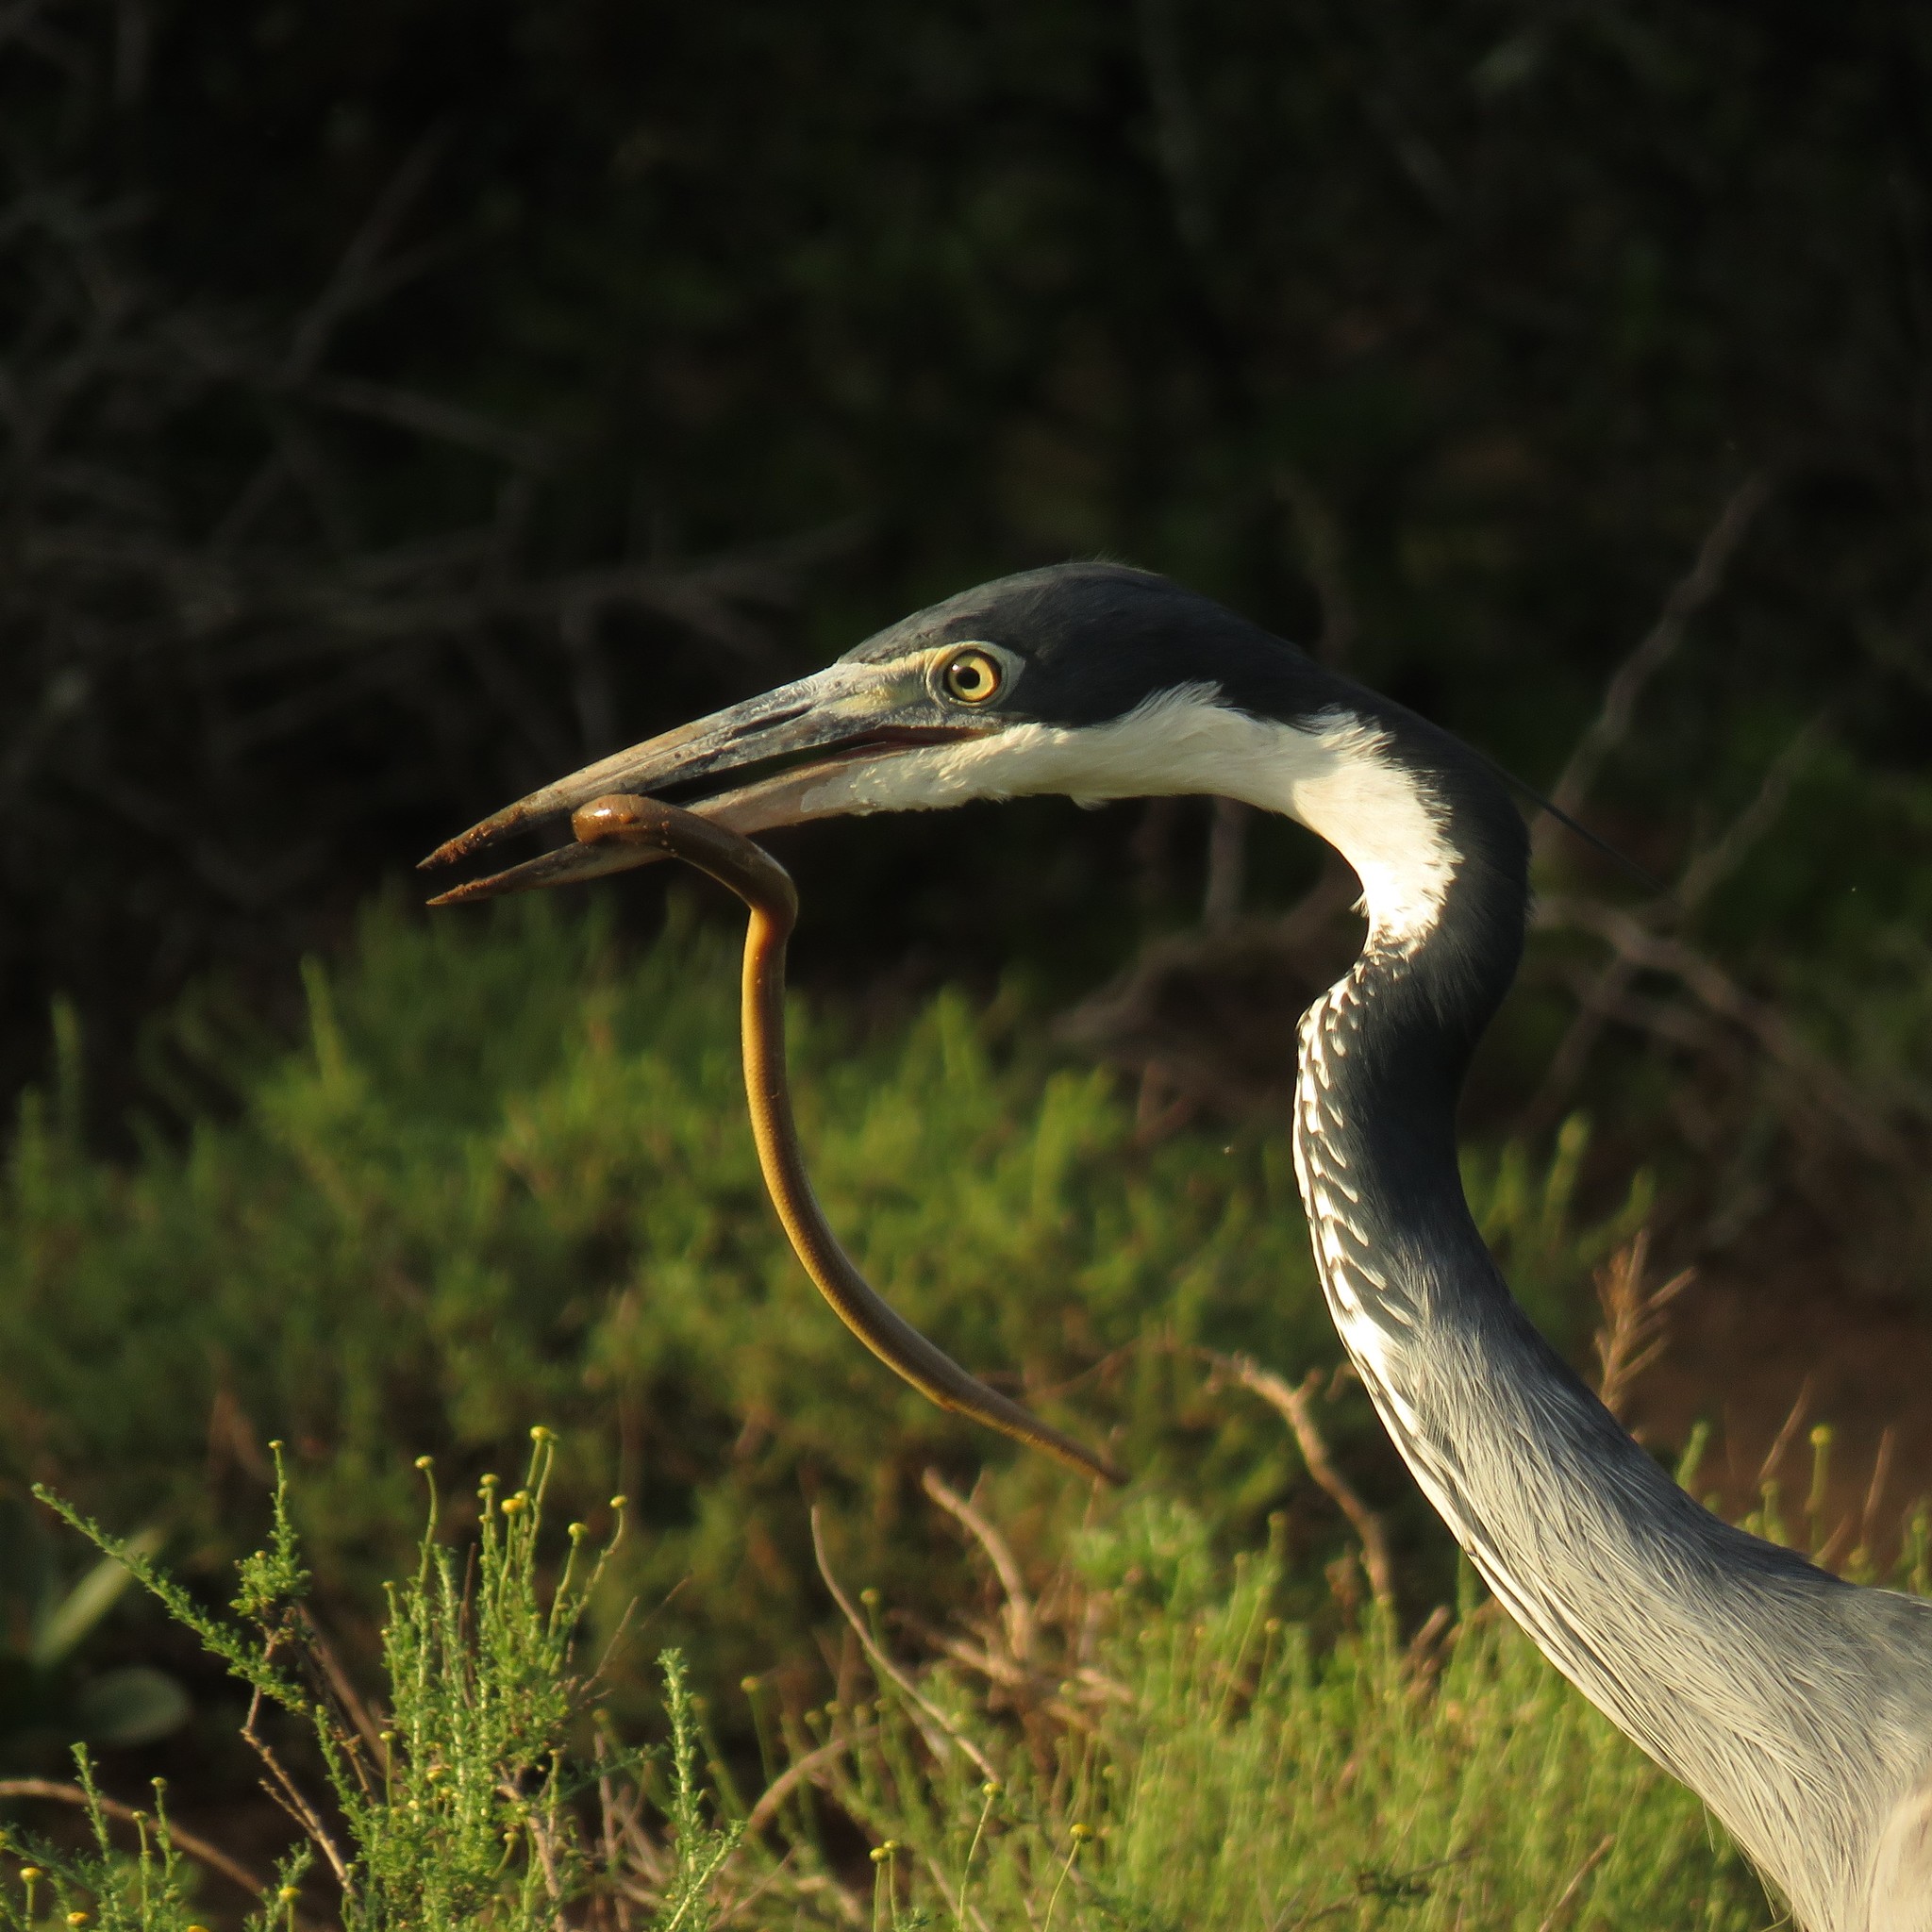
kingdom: Animalia
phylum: Chordata
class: Aves
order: Pelecaniformes
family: Ardeidae
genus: Ardea
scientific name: Ardea melanocephala
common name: Black-headed heron
